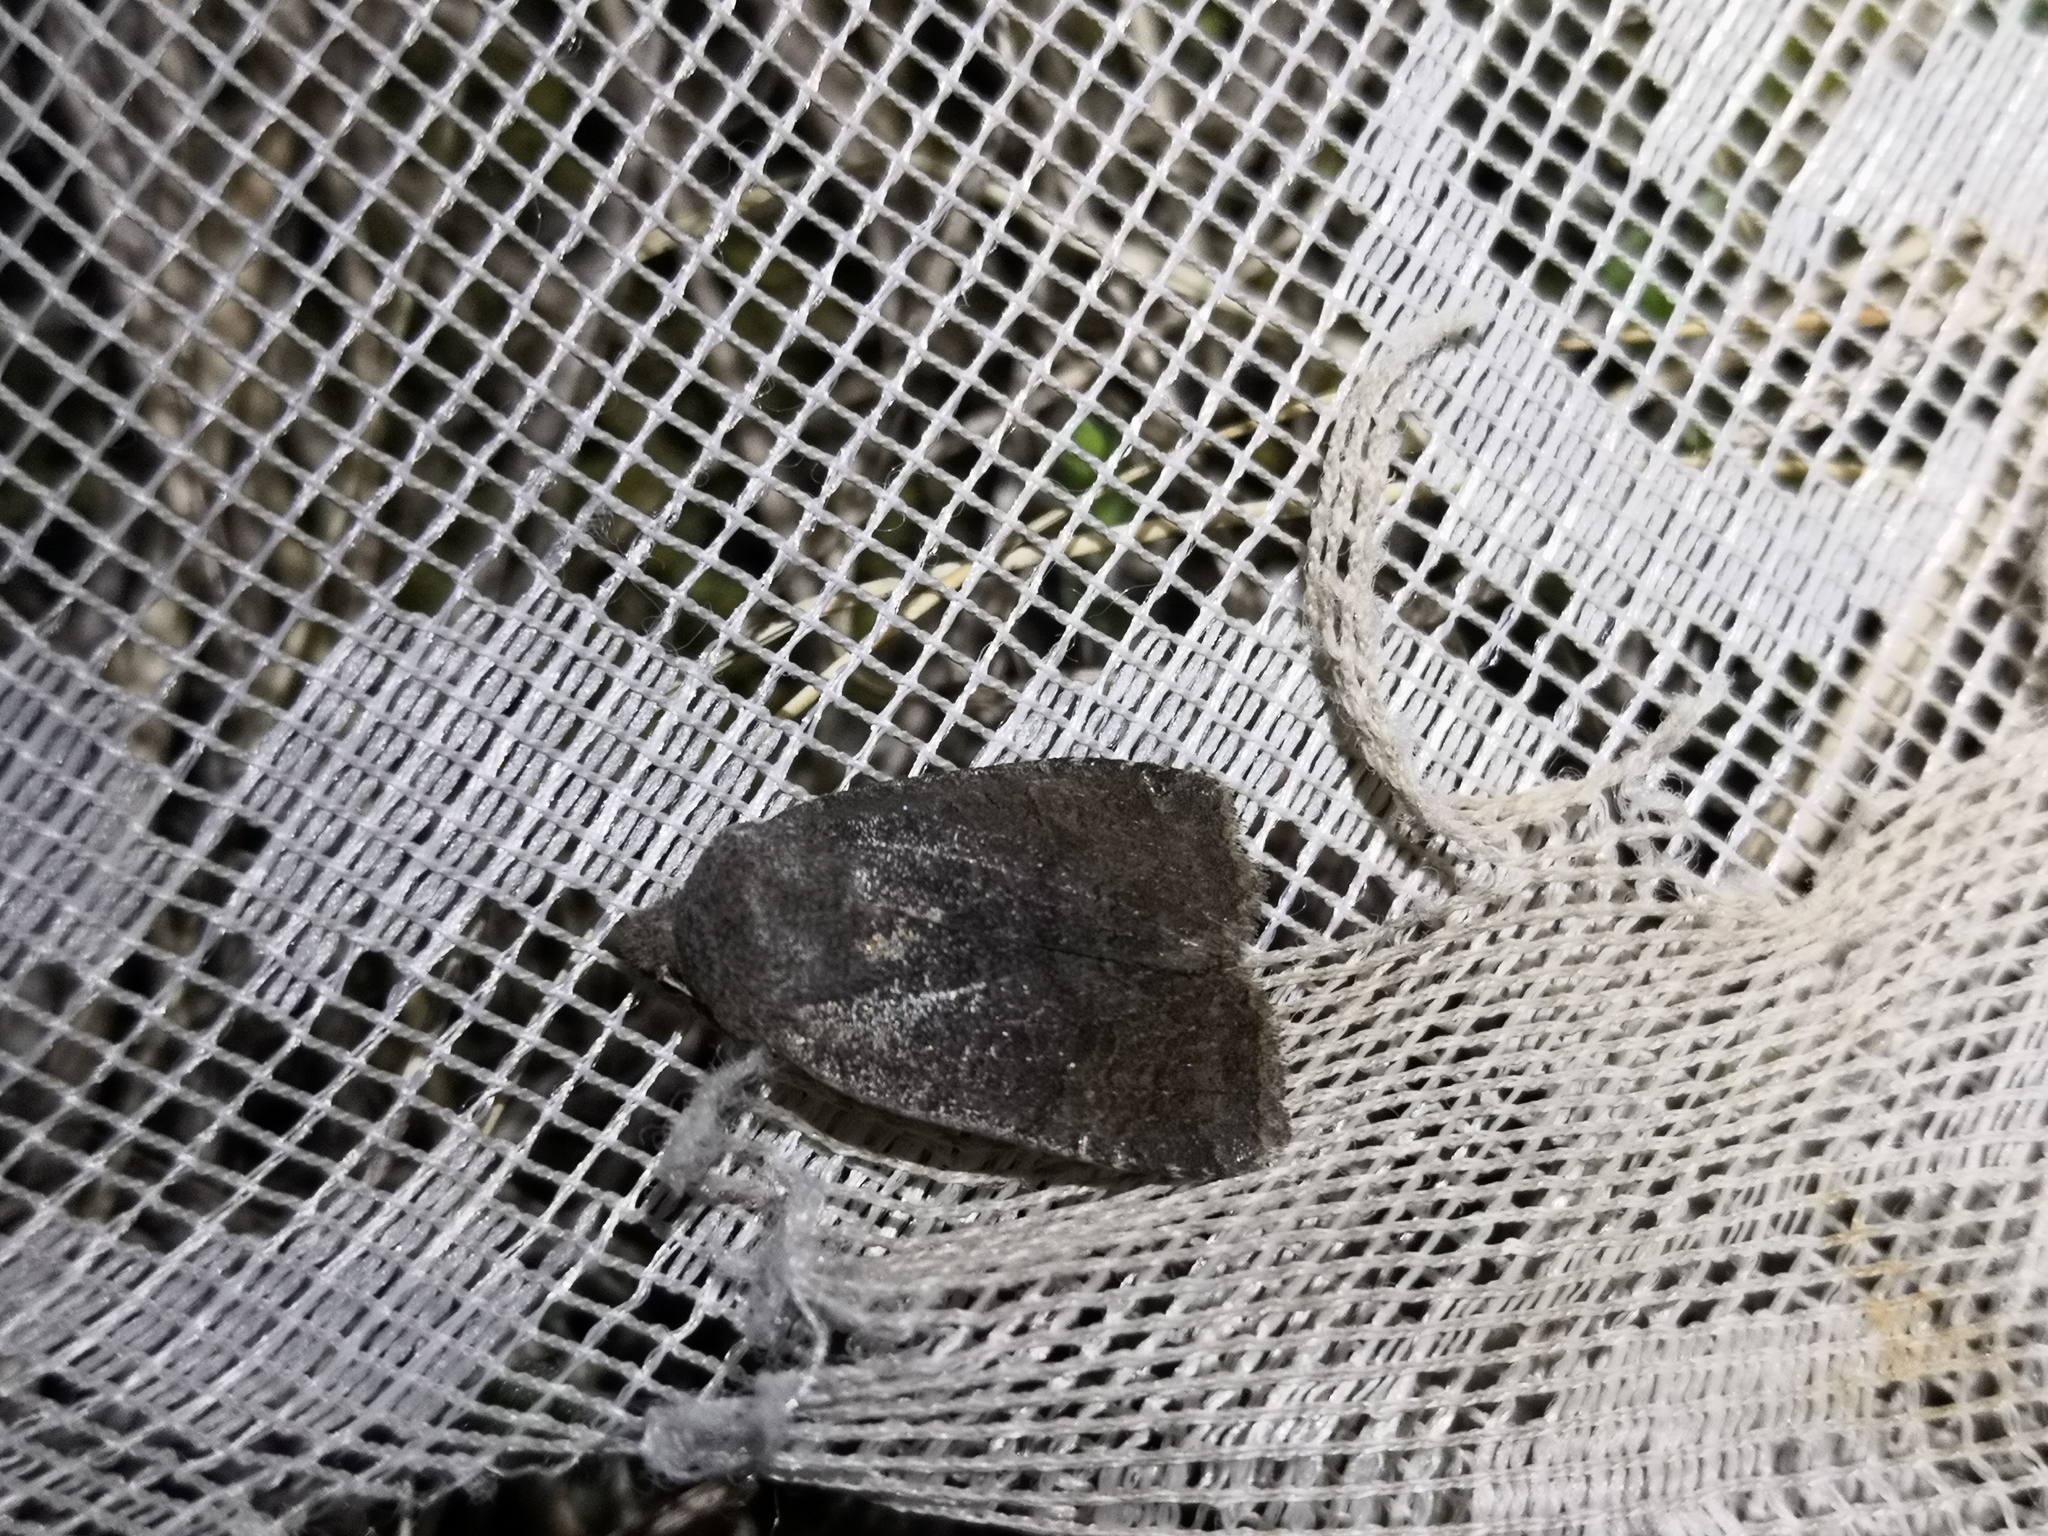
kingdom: Animalia
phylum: Arthropoda
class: Insecta
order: Lepidoptera
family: Noctuidae
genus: Conistra
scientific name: Conistra ligula
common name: Dark chestnut
